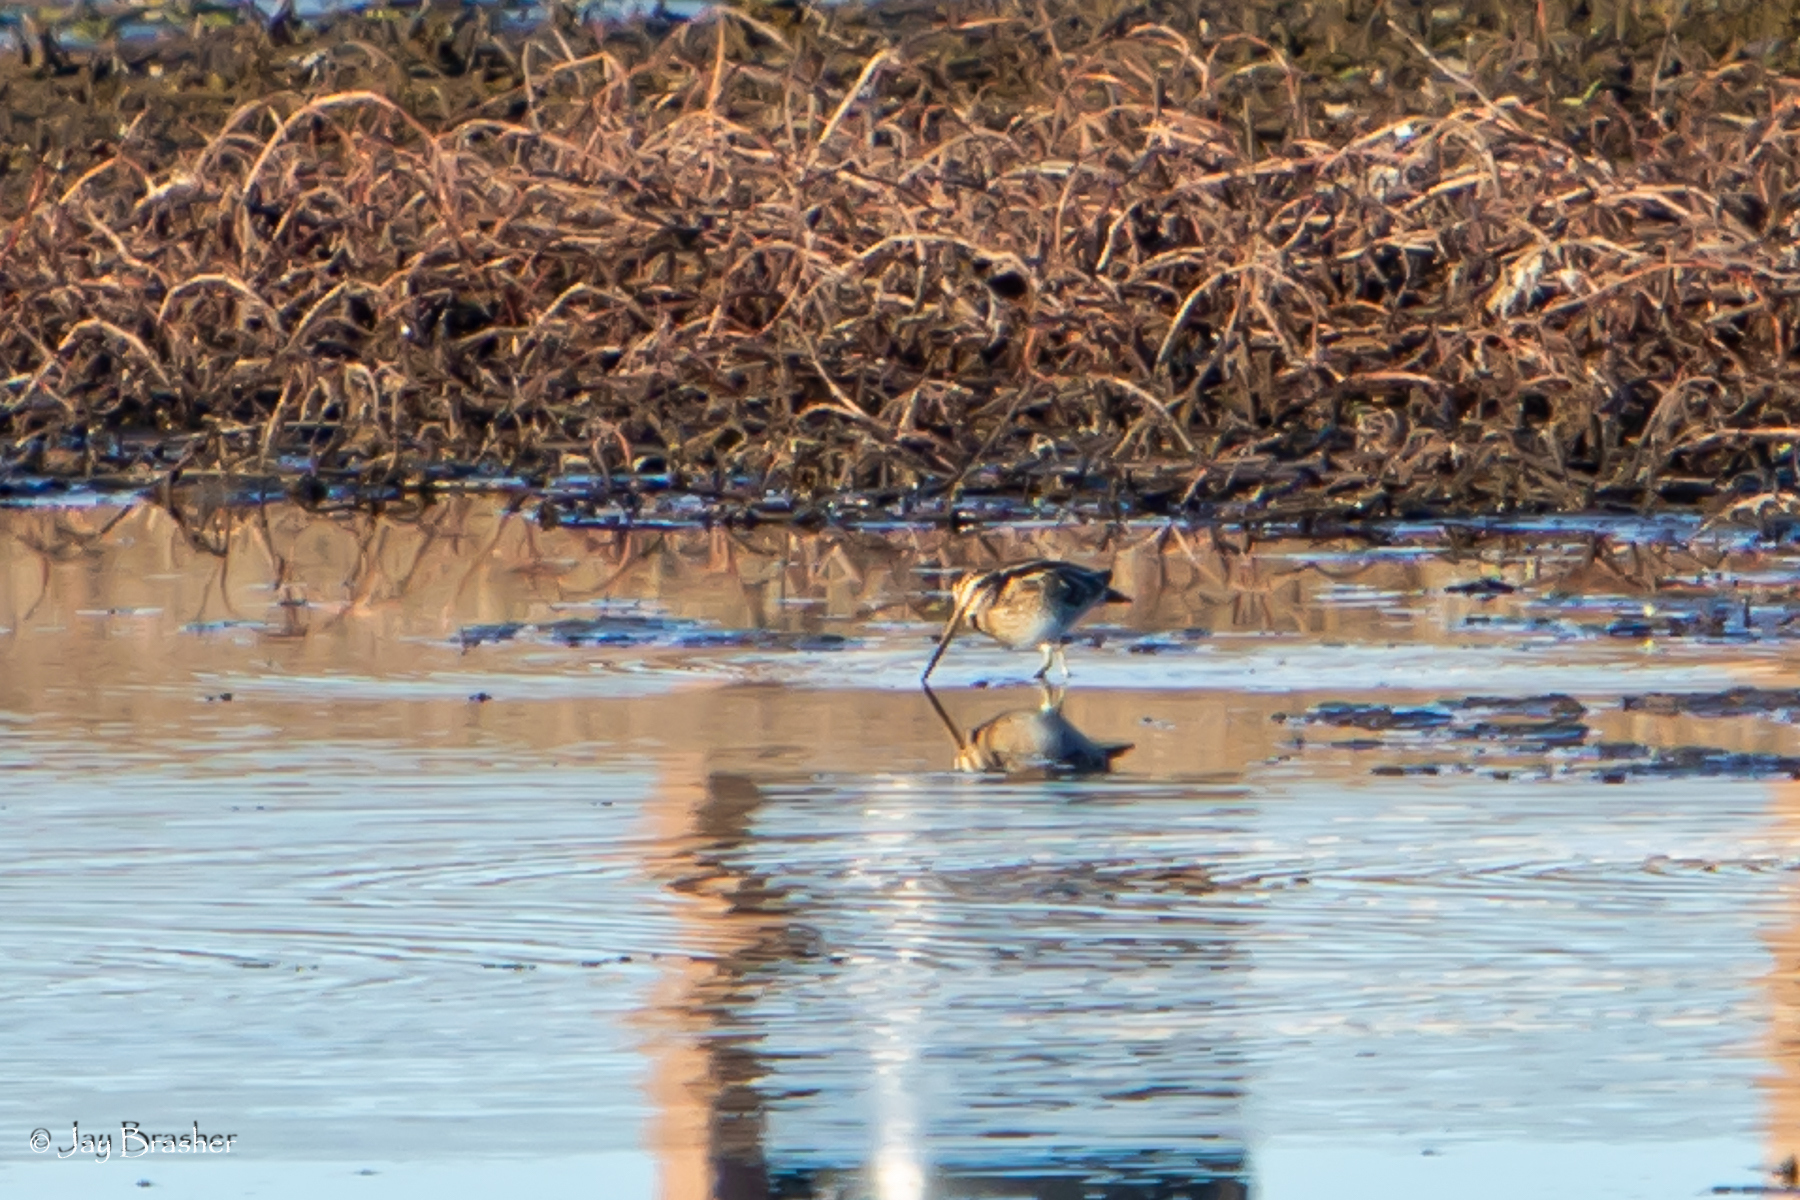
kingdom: Animalia
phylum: Chordata
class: Aves
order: Charadriiformes
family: Scolopacidae
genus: Gallinago
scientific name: Gallinago delicata
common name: Wilson's snipe
